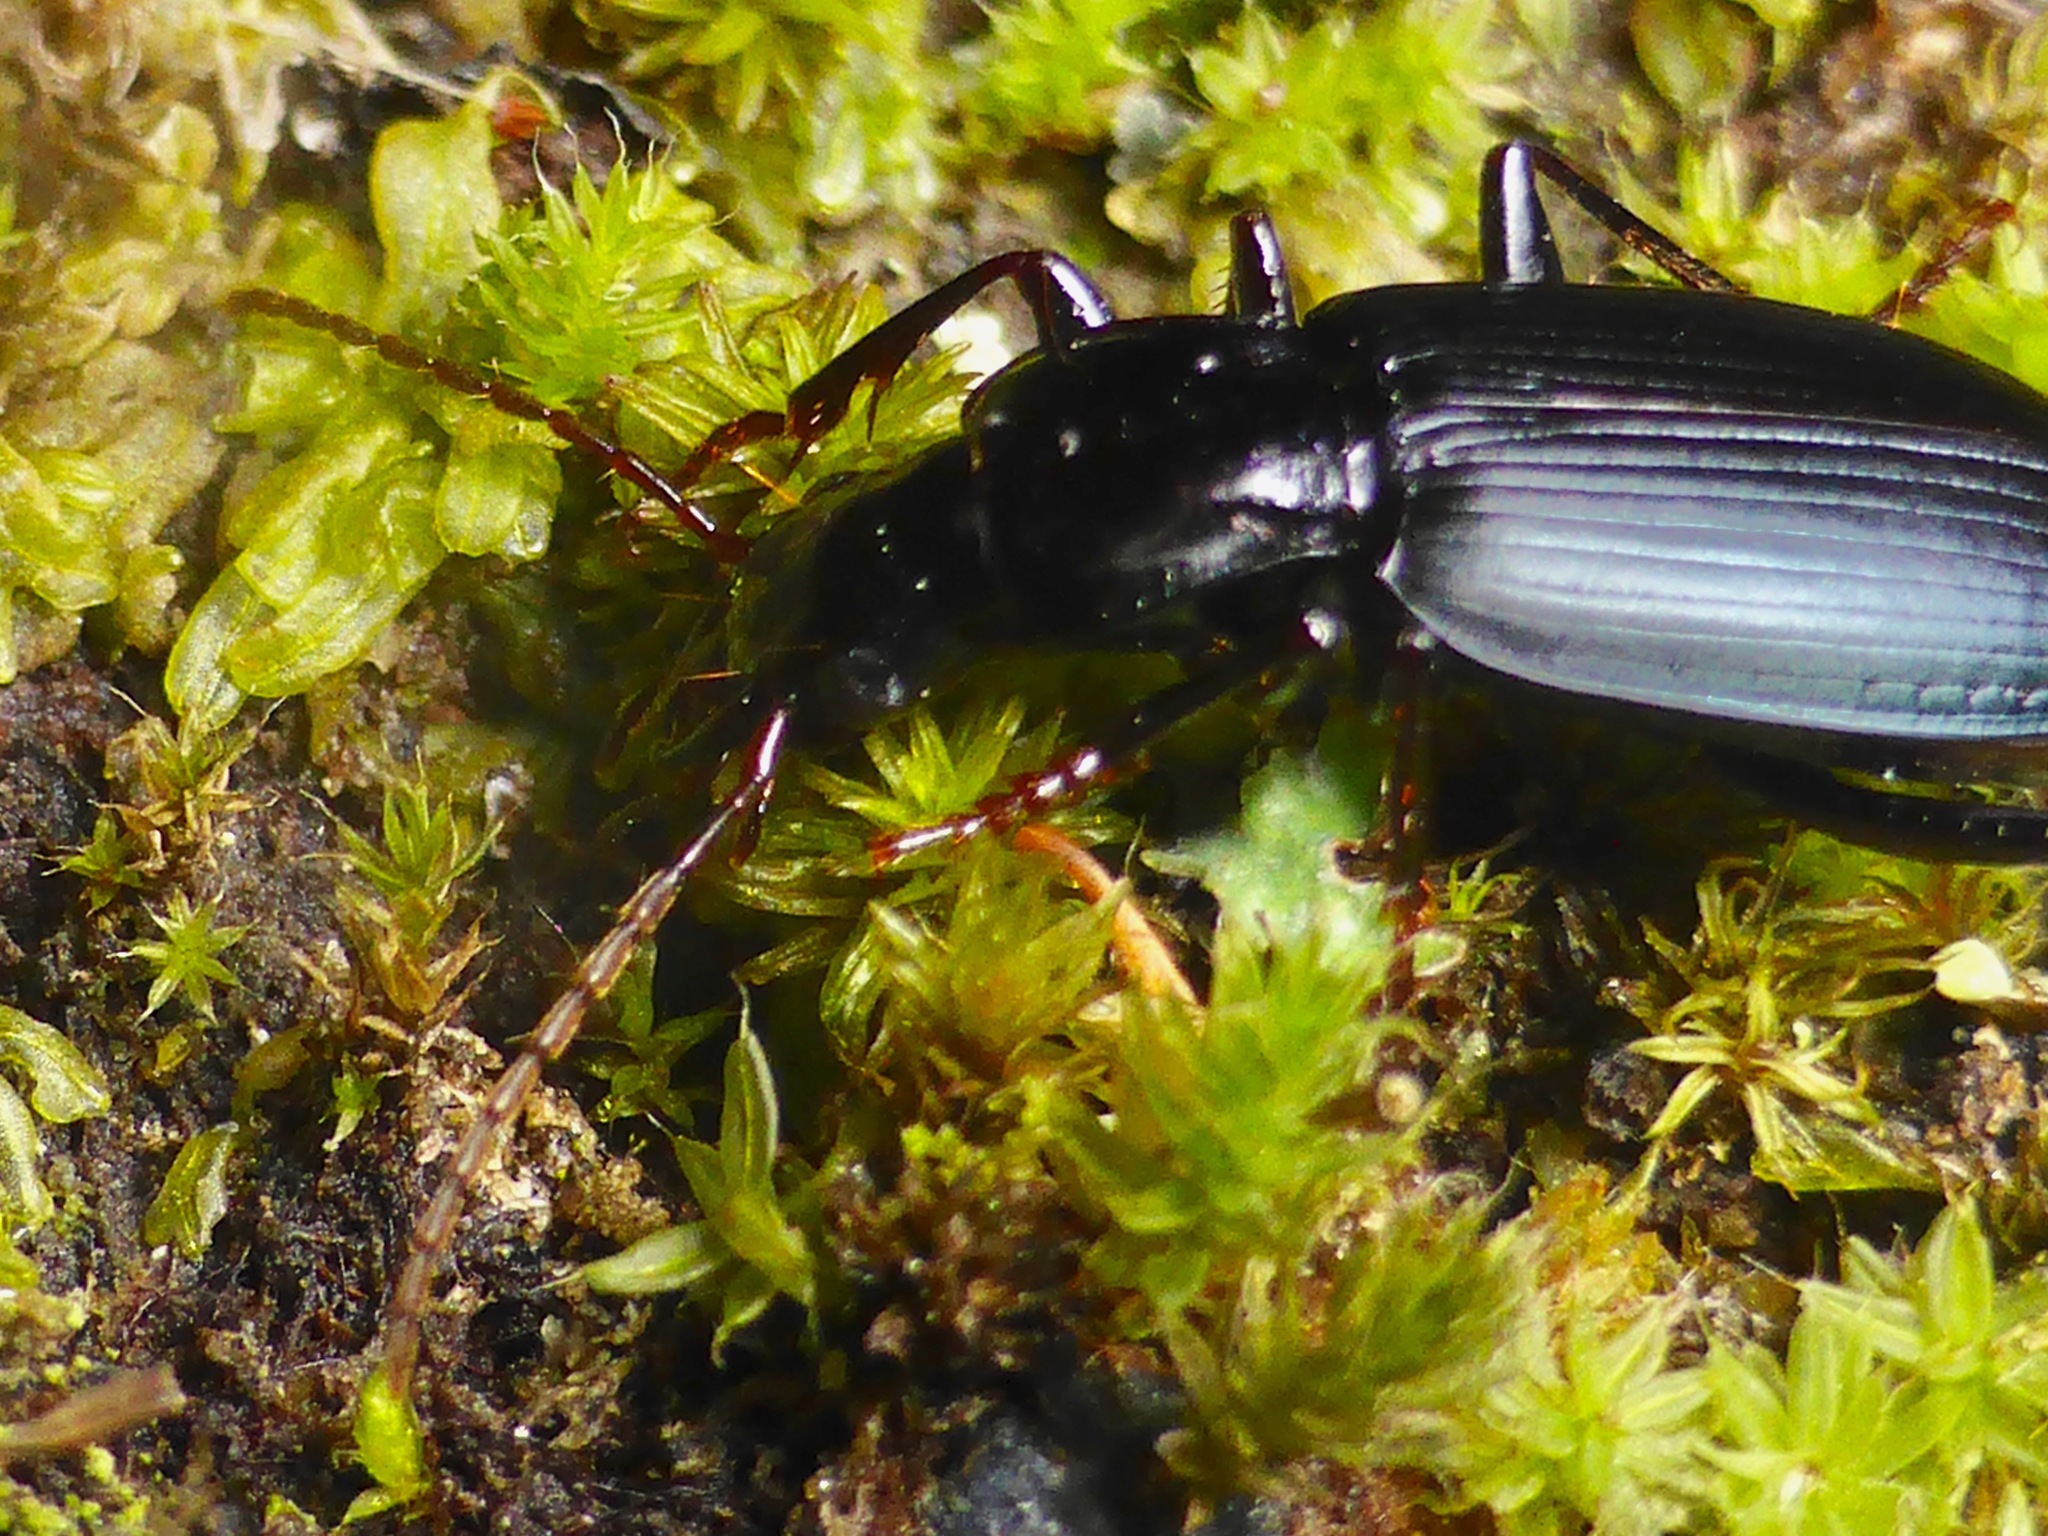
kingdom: Animalia
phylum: Arthropoda
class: Insecta
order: Coleoptera
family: Carabidae
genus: Laemostenus
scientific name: Laemostenus complanatus
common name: Cosmopolitan ground beetle
